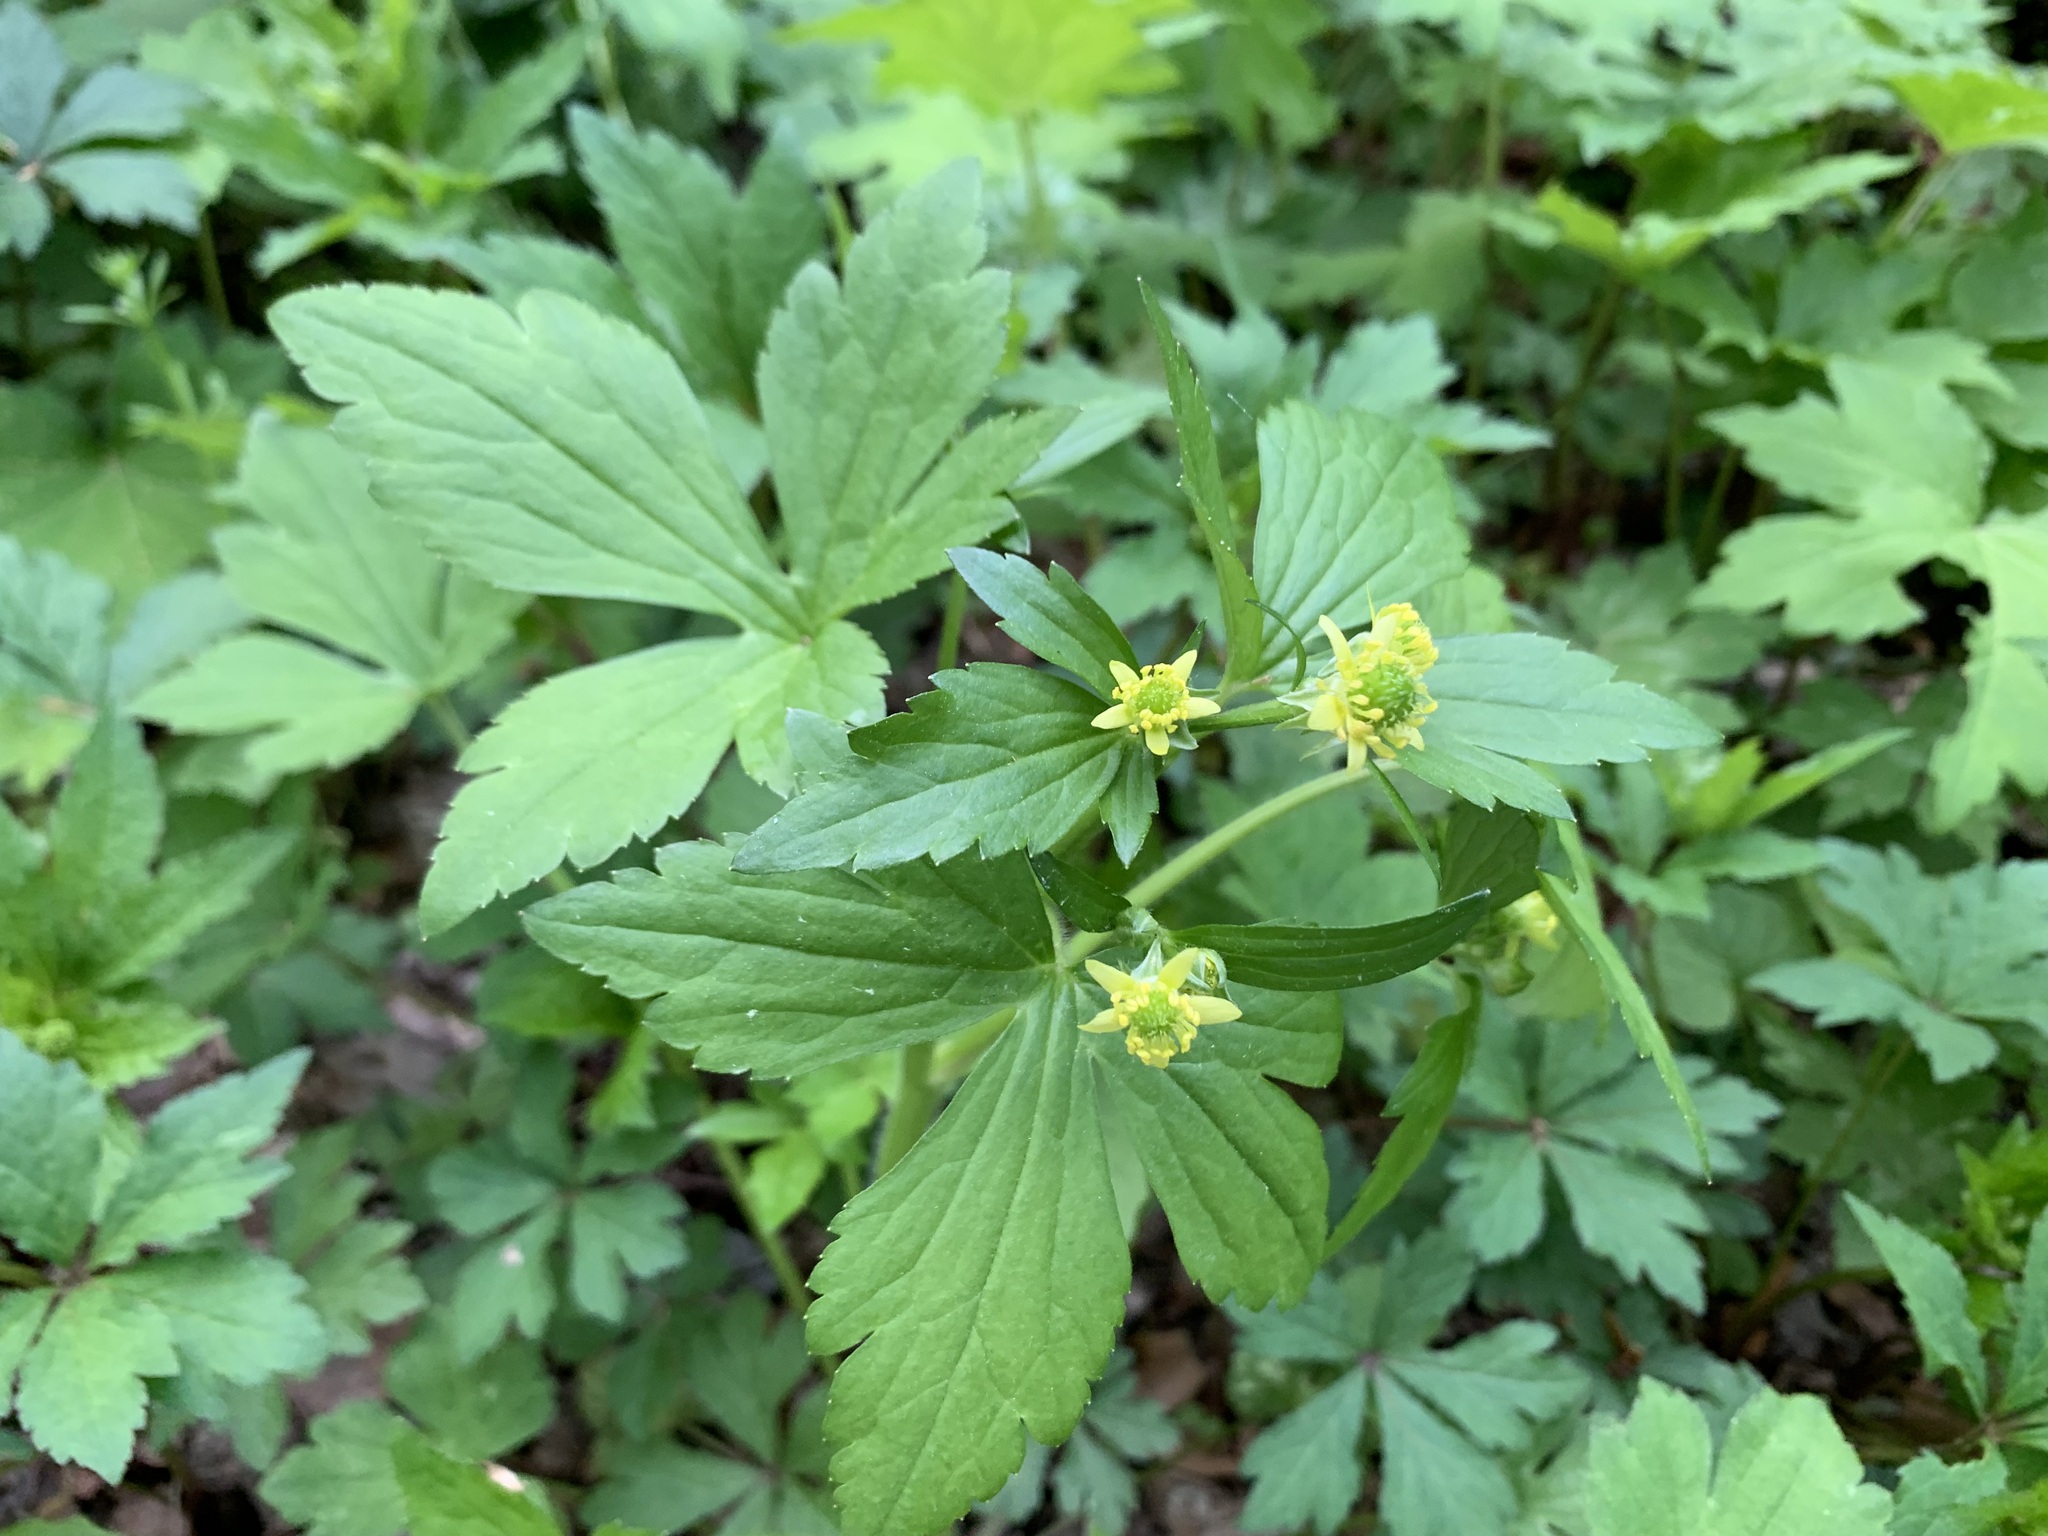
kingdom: Plantae
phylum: Tracheophyta
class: Magnoliopsida
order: Ranunculales
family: Ranunculaceae
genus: Ranunculus
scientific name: Ranunculus recurvatus
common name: Blisterwort
